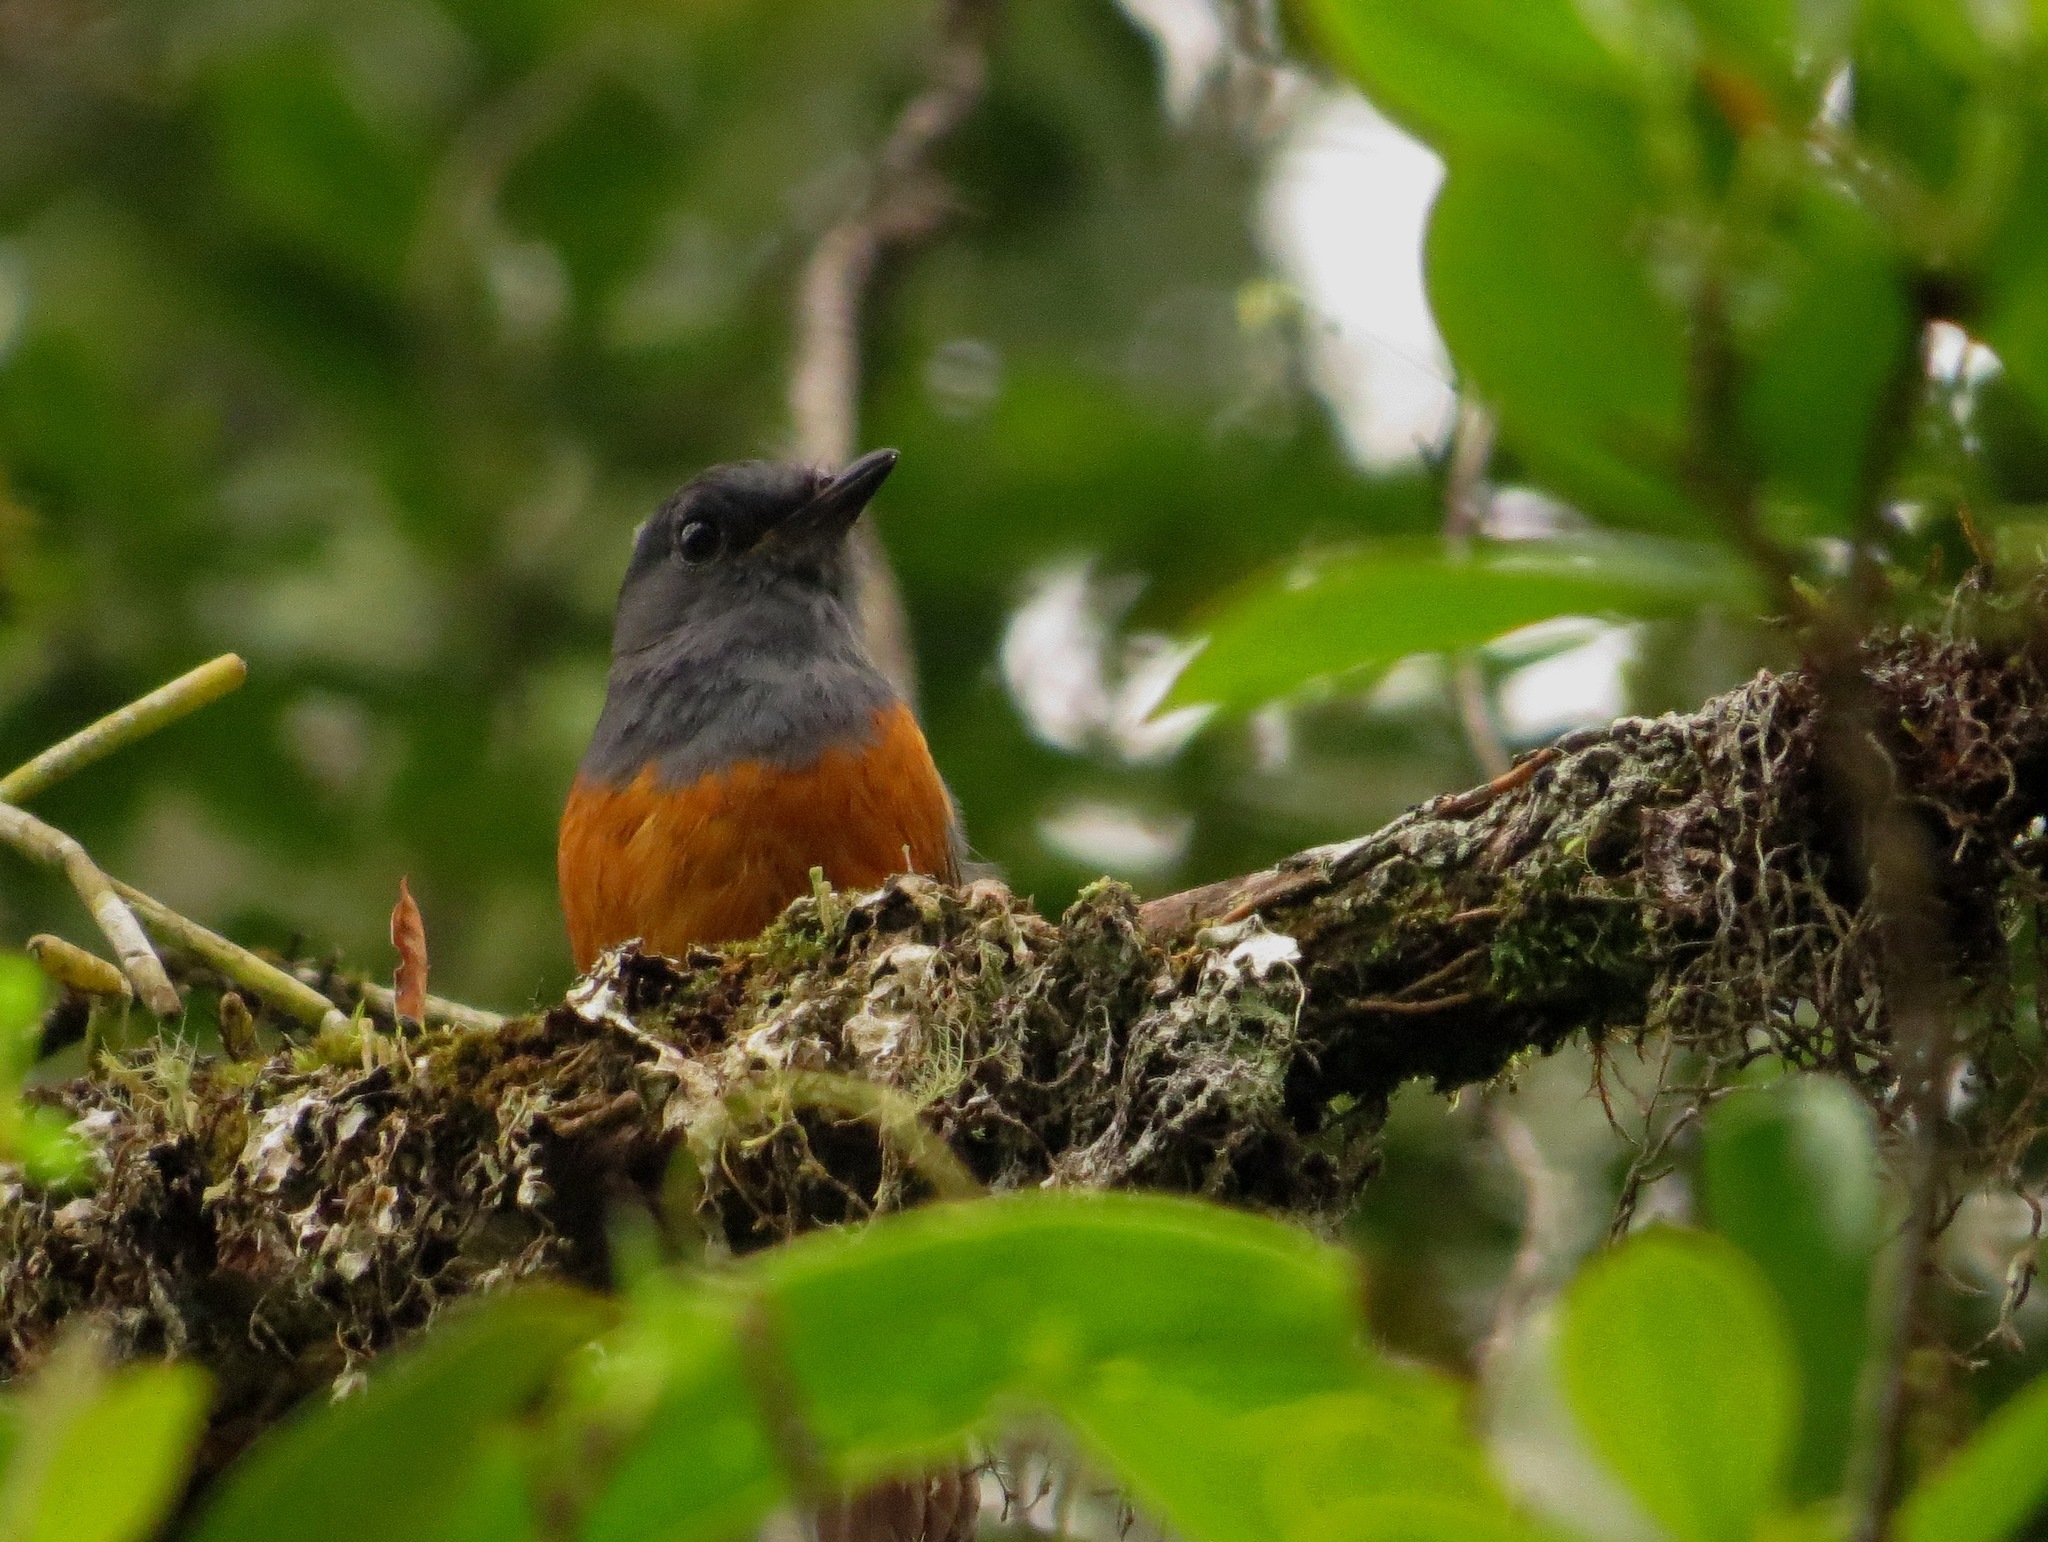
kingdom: Animalia
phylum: Chordata
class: Aves
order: Passeriformes
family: Muscicapidae
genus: Monticola
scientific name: Monticola sharpei
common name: Forest rock-thrush
